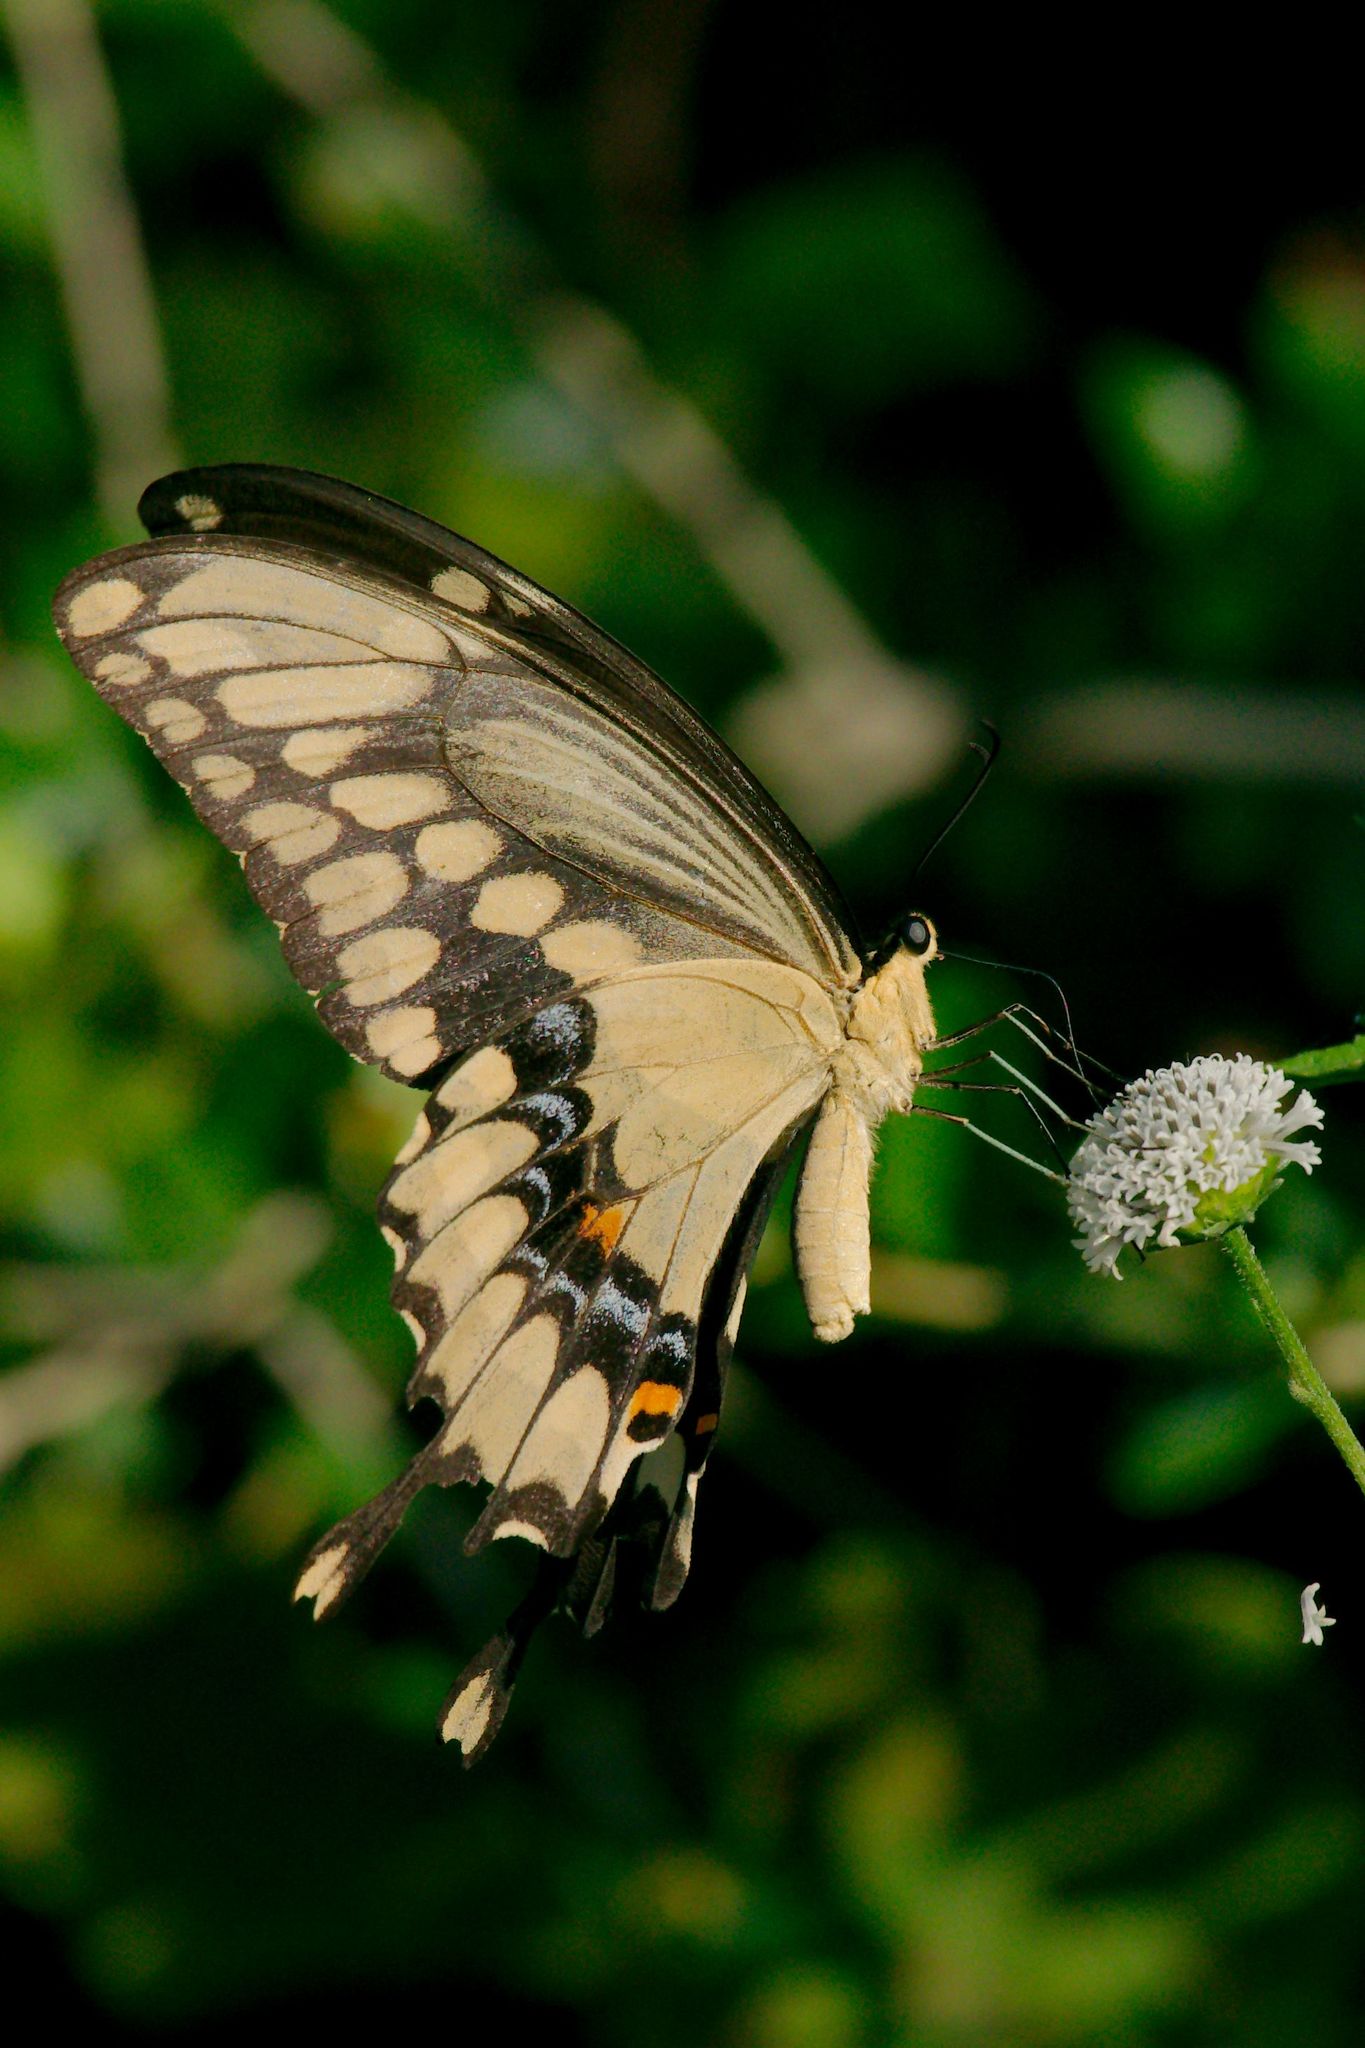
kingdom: Animalia
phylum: Arthropoda
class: Insecta
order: Lepidoptera
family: Papilionidae
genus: Papilio
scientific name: Papilio cresphontes
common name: Giant swallowtail
